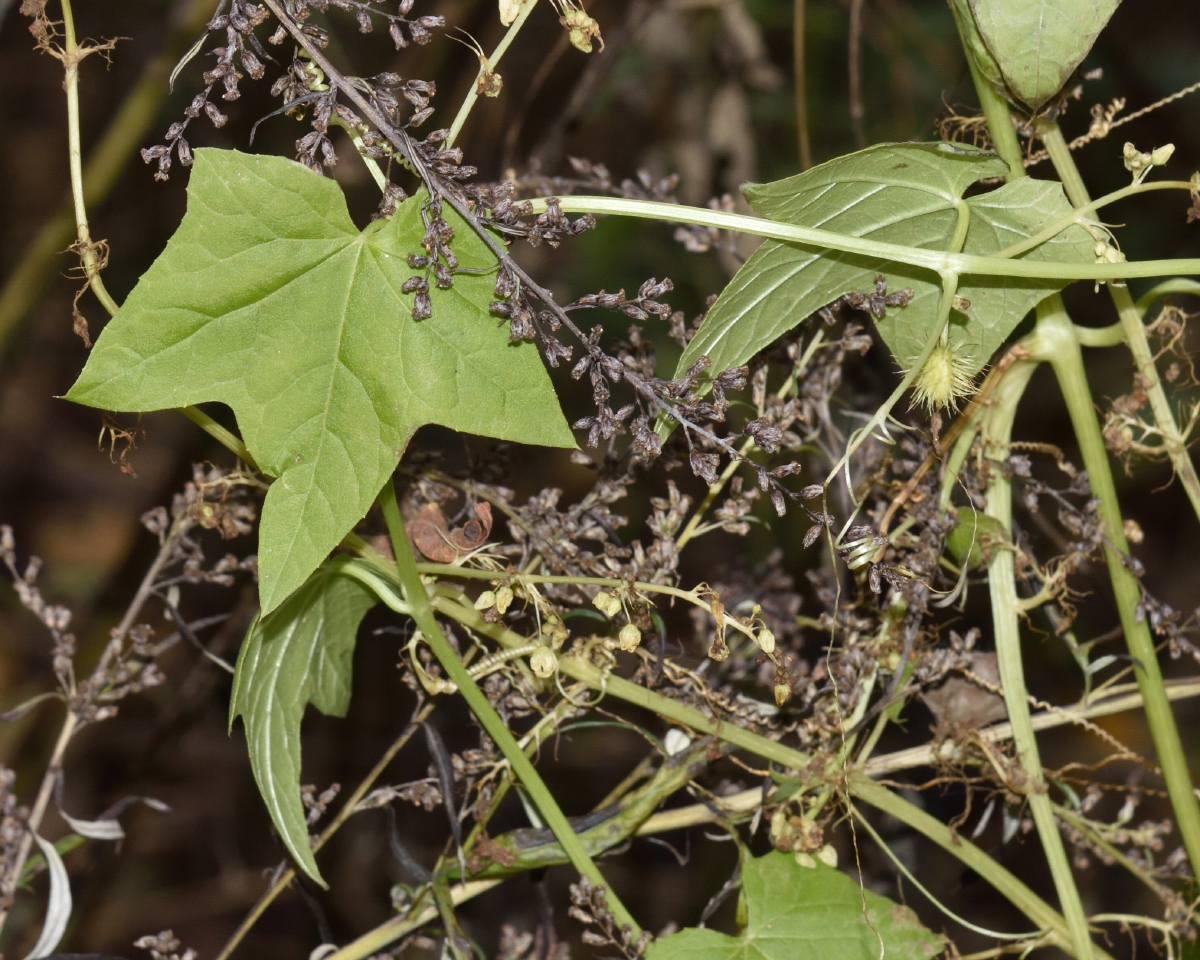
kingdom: Plantae
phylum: Tracheophyta
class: Magnoliopsida
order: Cucurbitales
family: Cucurbitaceae
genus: Echinocystis
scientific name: Echinocystis lobata
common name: Wild cucumber
